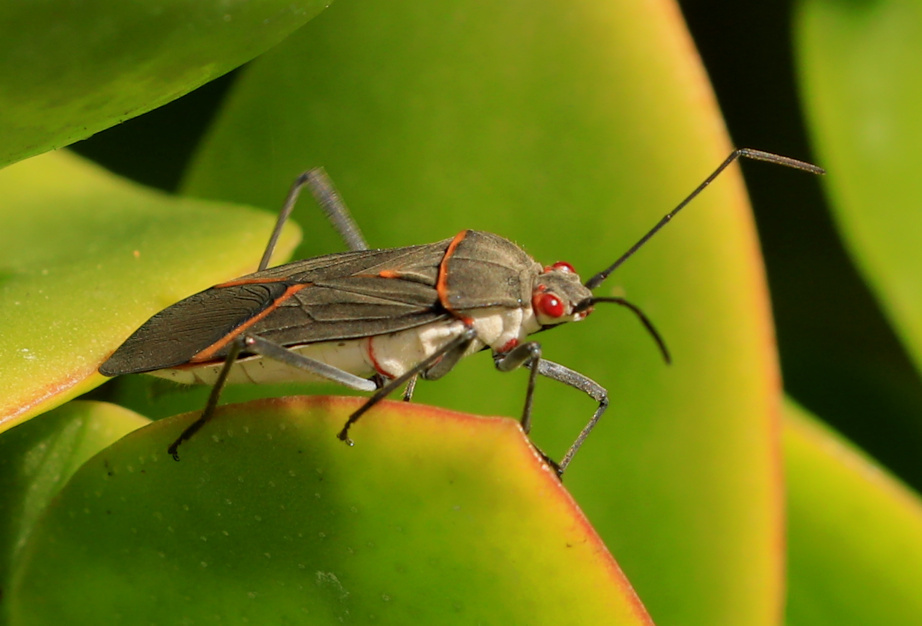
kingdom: Animalia
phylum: Arthropoda
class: Insecta
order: Hemiptera
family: Rhopalidae
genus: Leptocoris
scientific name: Leptocoris amictus
